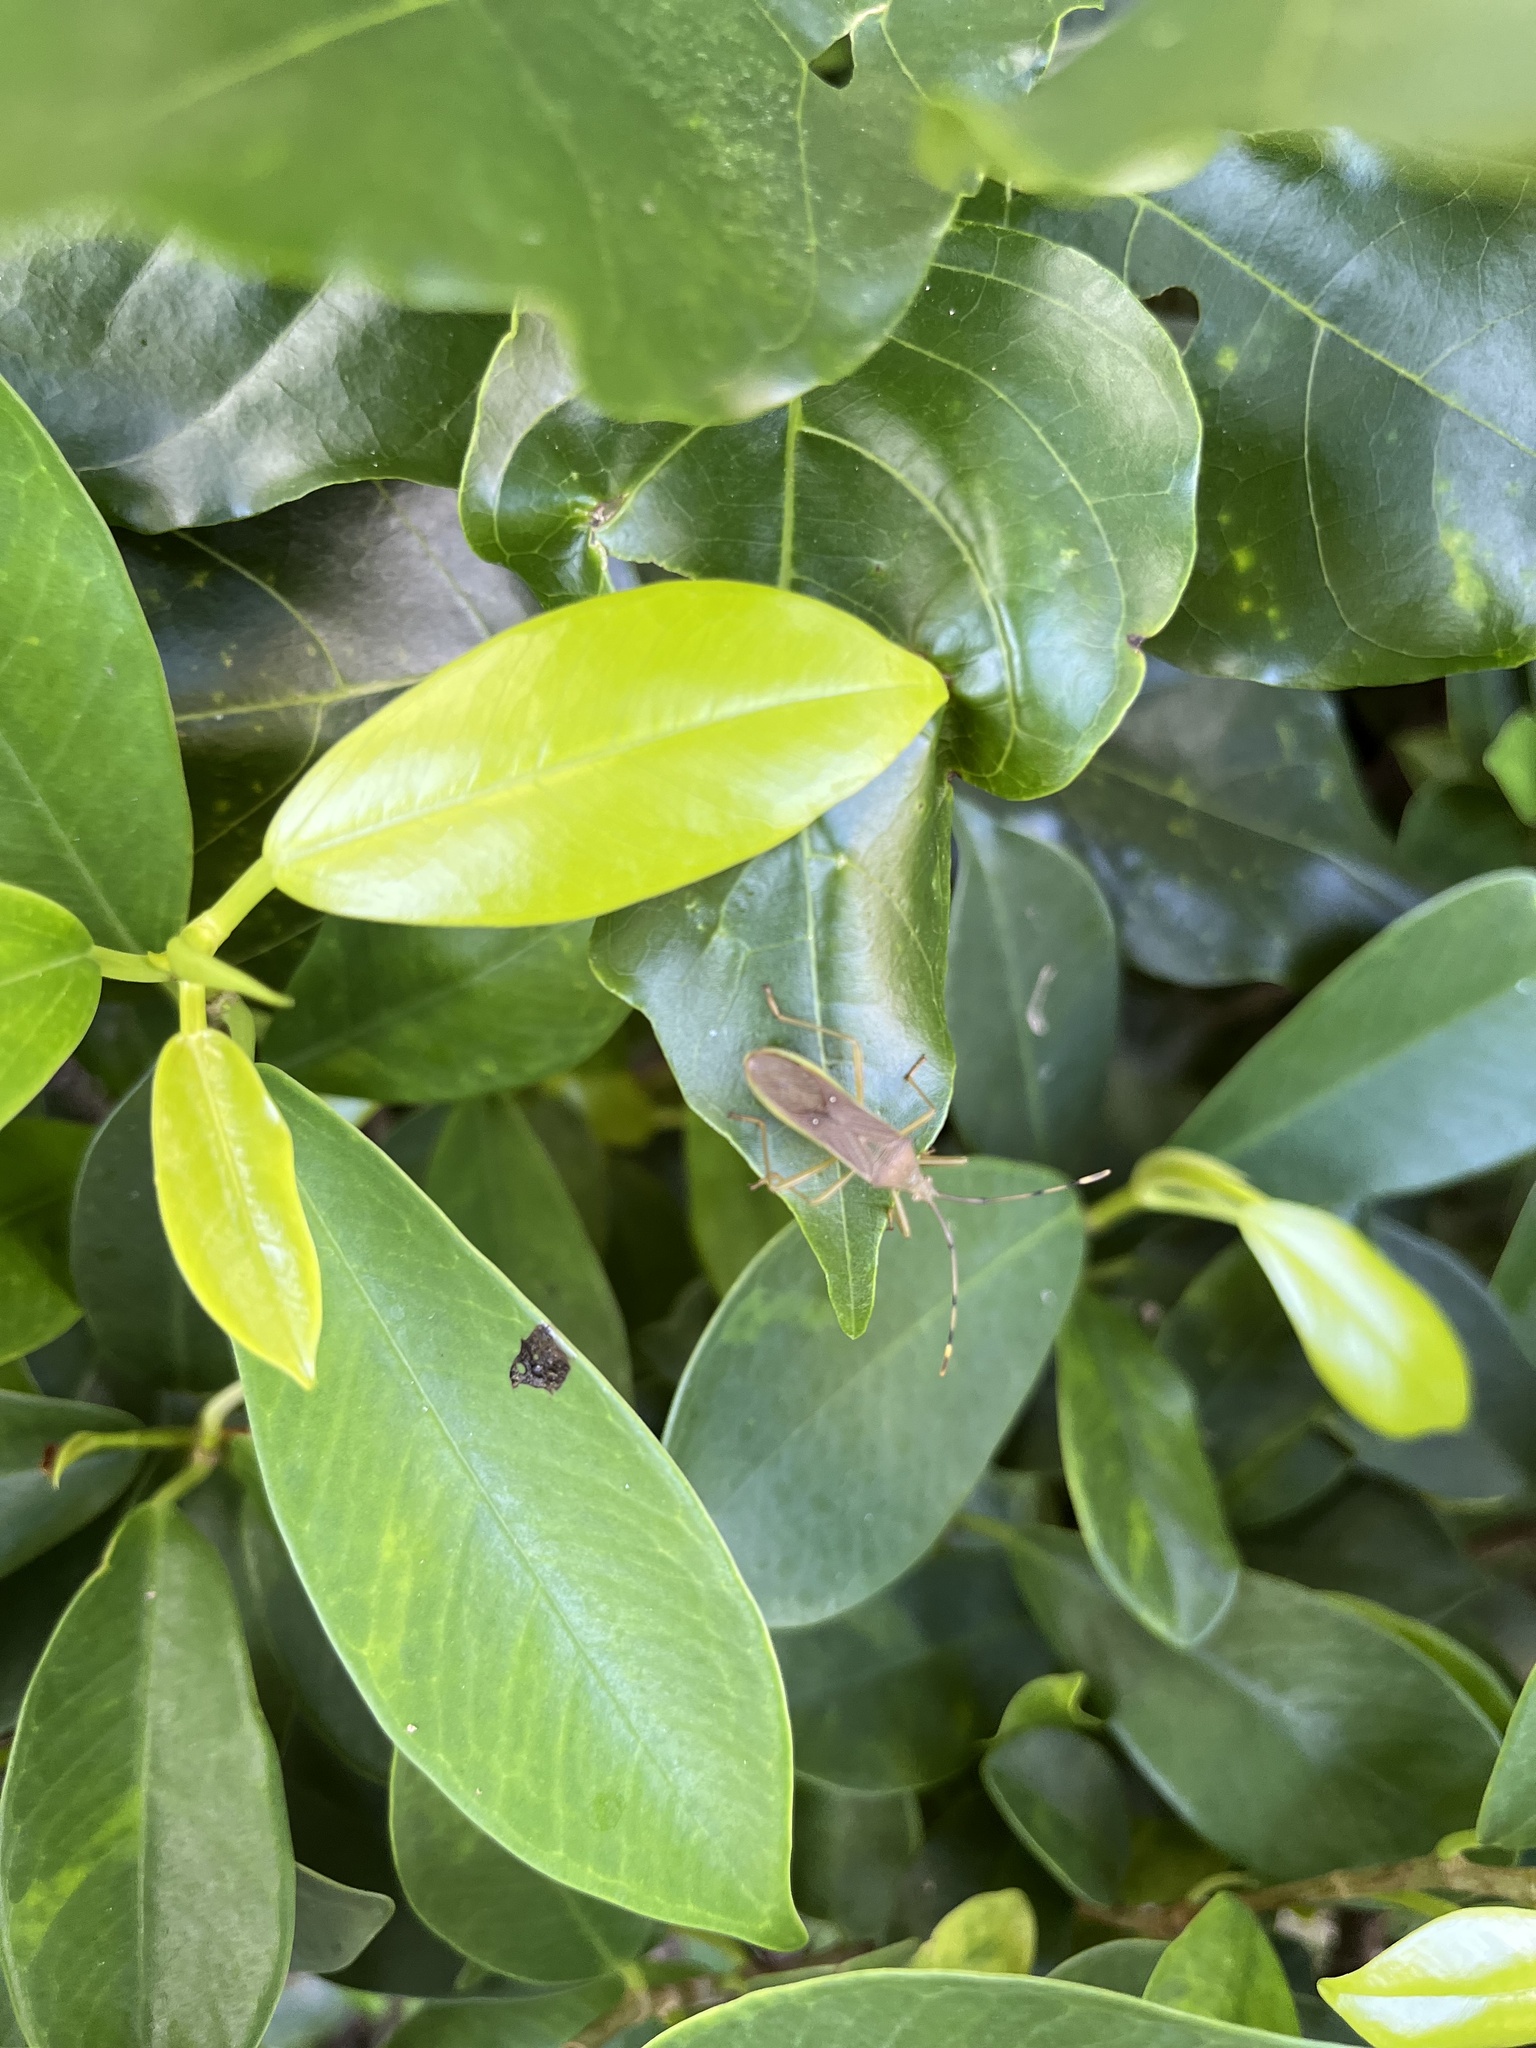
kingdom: Animalia
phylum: Arthropoda
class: Insecta
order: Hemiptera
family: Coreidae
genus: Homoeocerus
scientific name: Homoeocerus bipustulatus
